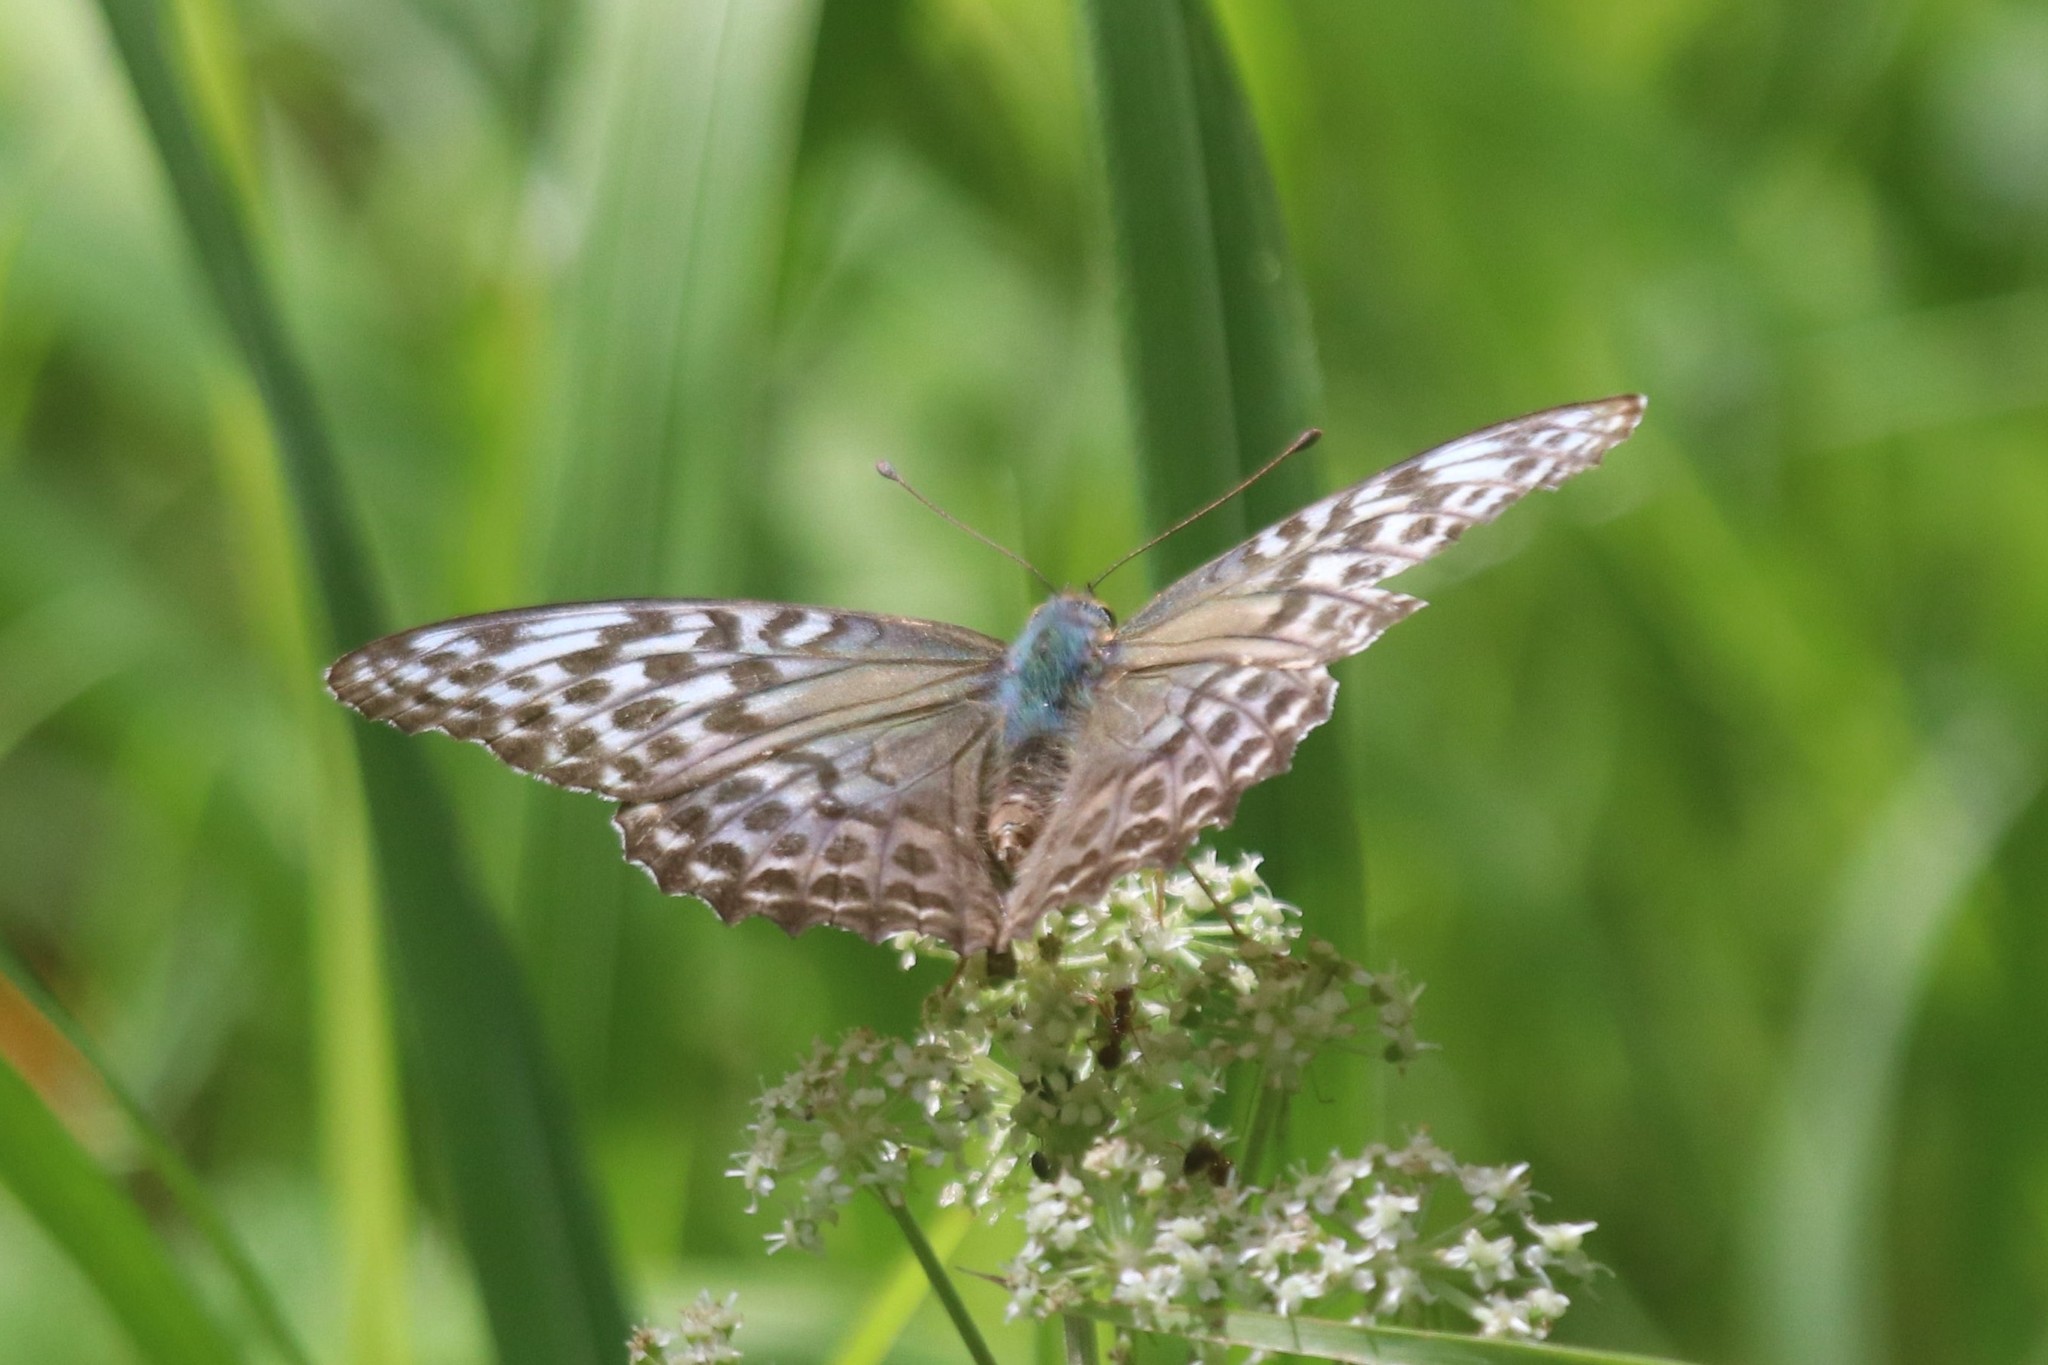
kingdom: Animalia
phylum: Arthropoda
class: Insecta
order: Lepidoptera
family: Nymphalidae
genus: Argynnis
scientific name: Argynnis paphia
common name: Silver-washed fritillary
